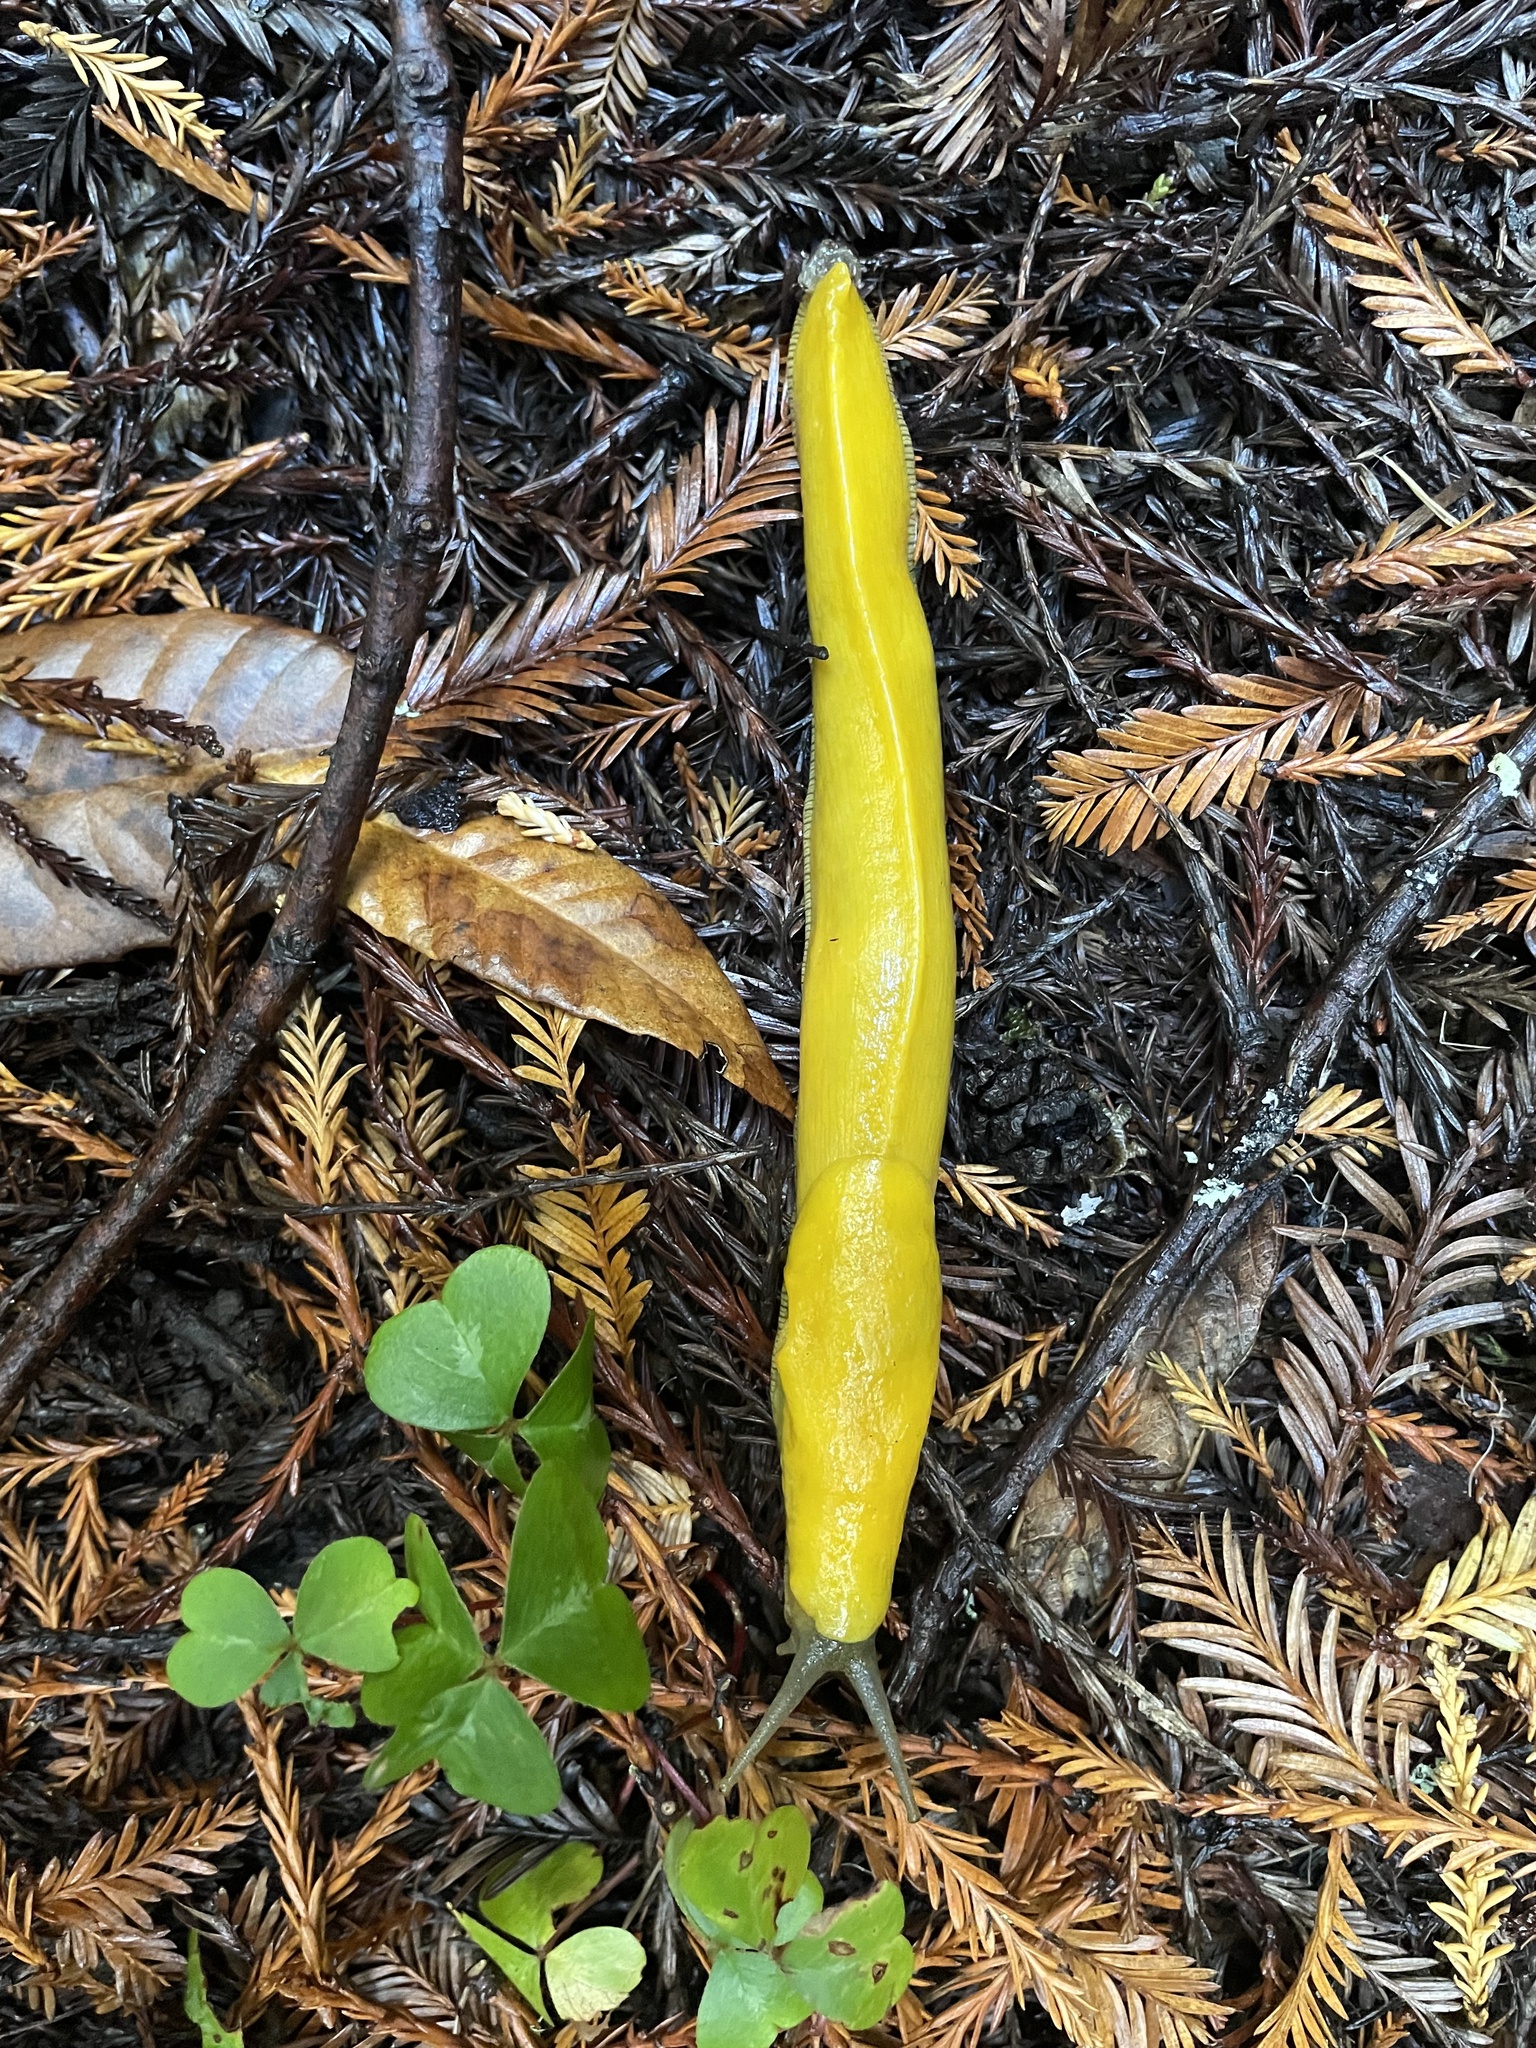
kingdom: Animalia
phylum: Mollusca
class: Gastropoda
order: Stylommatophora
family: Ariolimacidae
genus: Ariolimax
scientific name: Ariolimax californicus
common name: California banana slug
